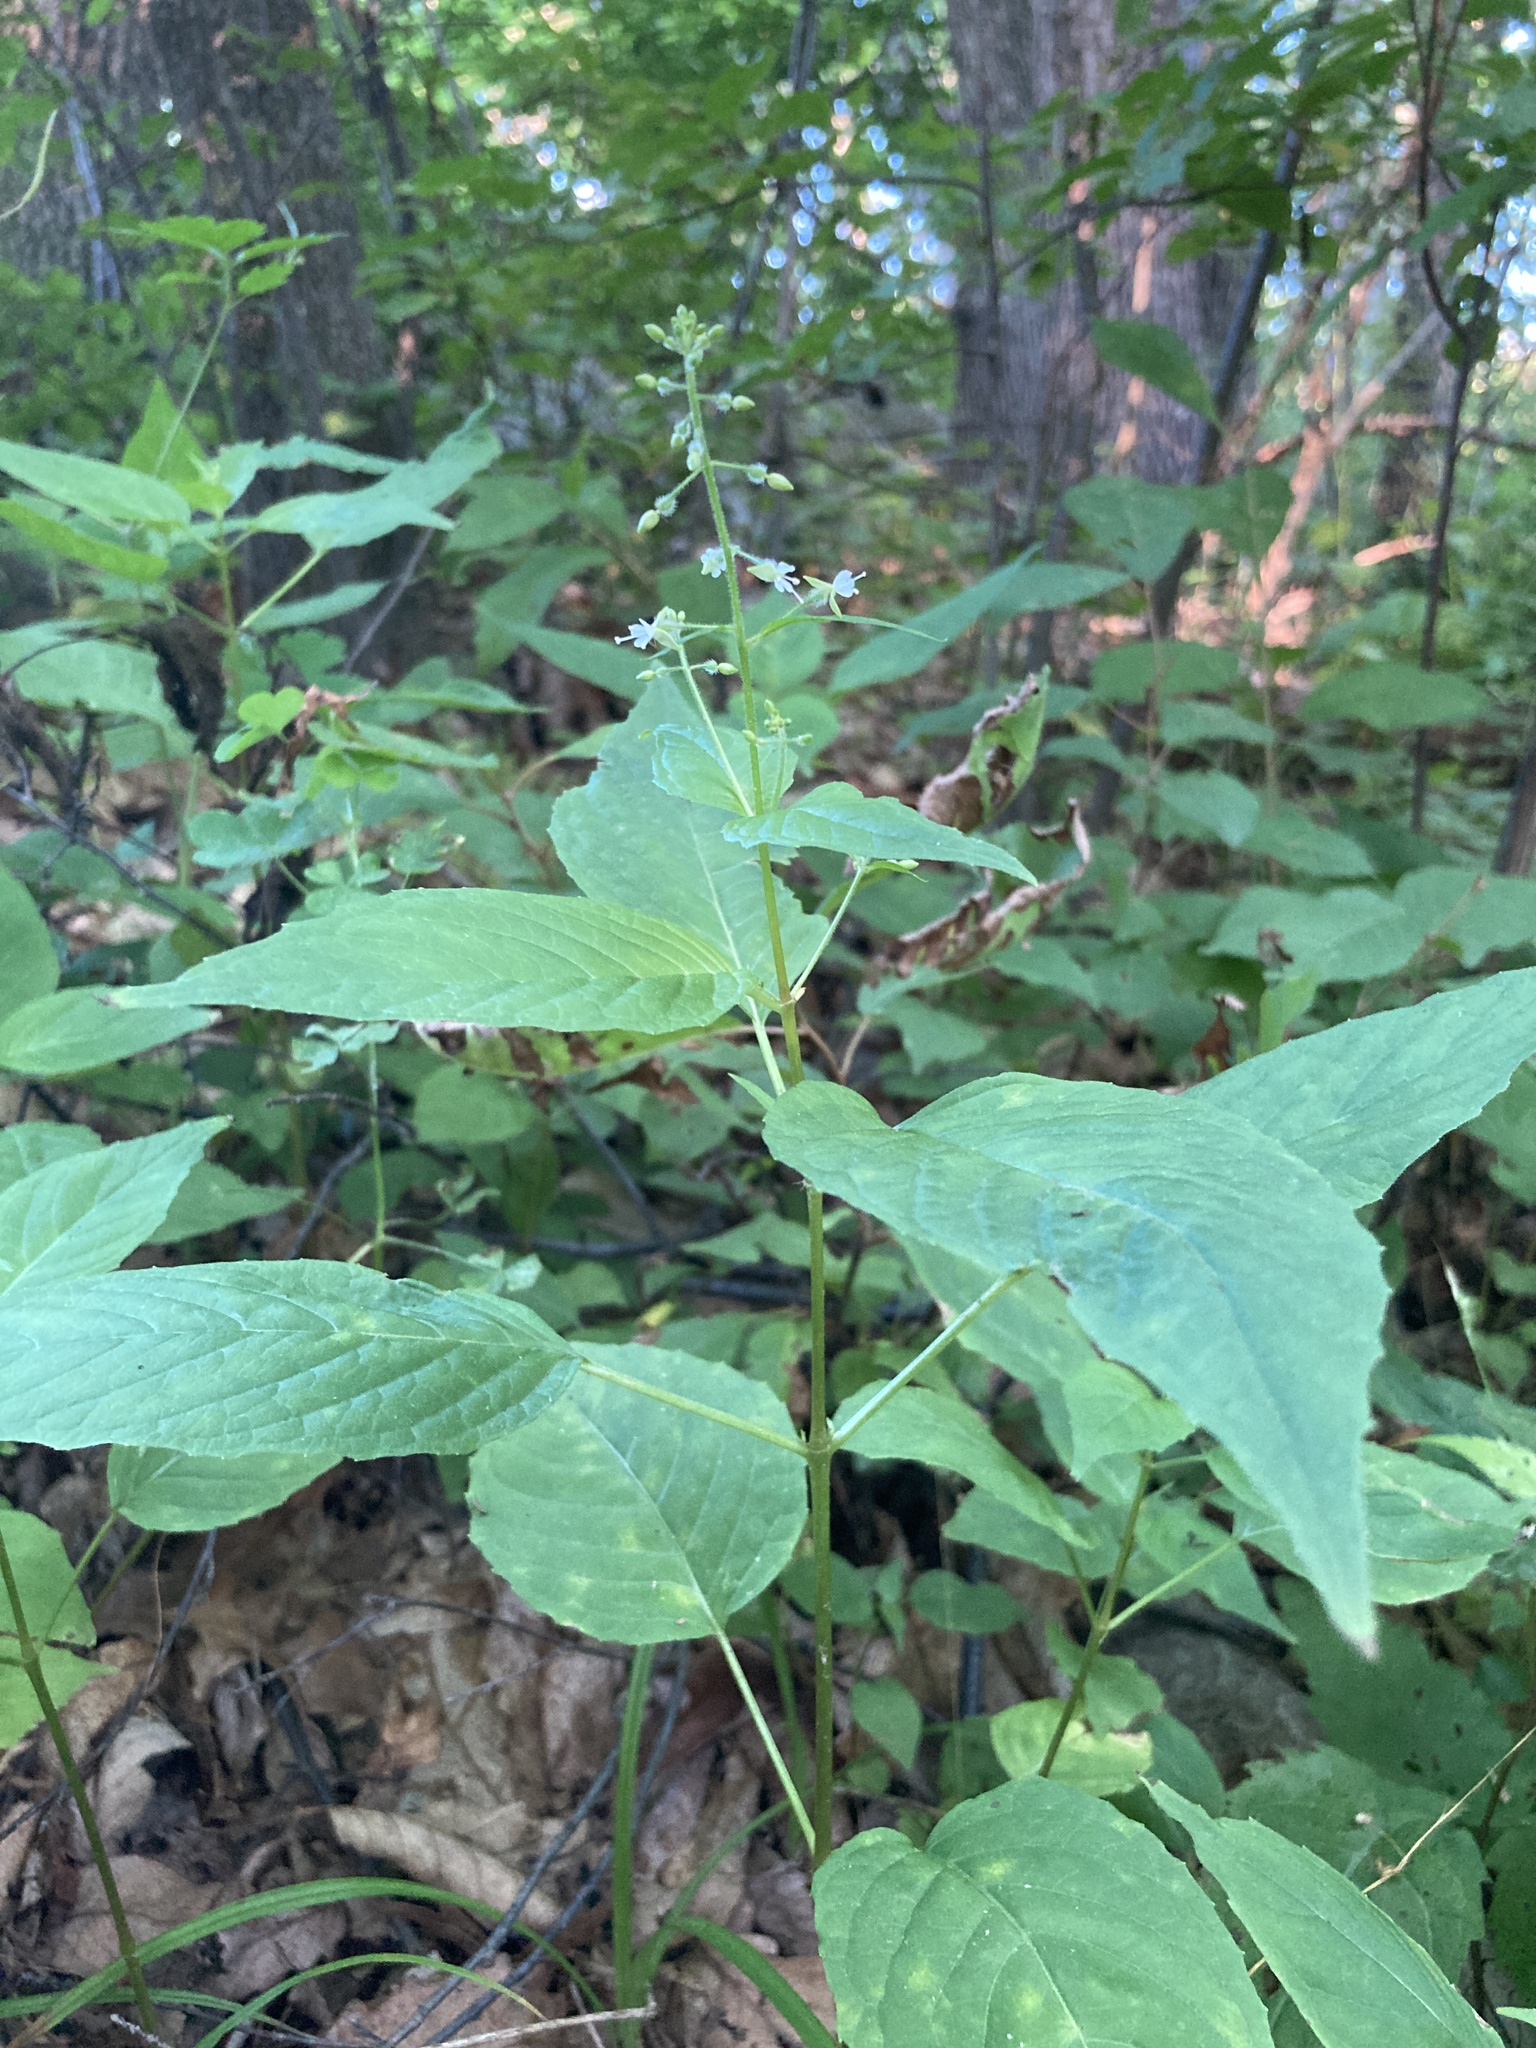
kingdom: Plantae
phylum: Tracheophyta
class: Magnoliopsida
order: Myrtales
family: Onagraceae
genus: Circaea
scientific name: Circaea canadensis
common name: Broad-leaved enchanter's nightshade
